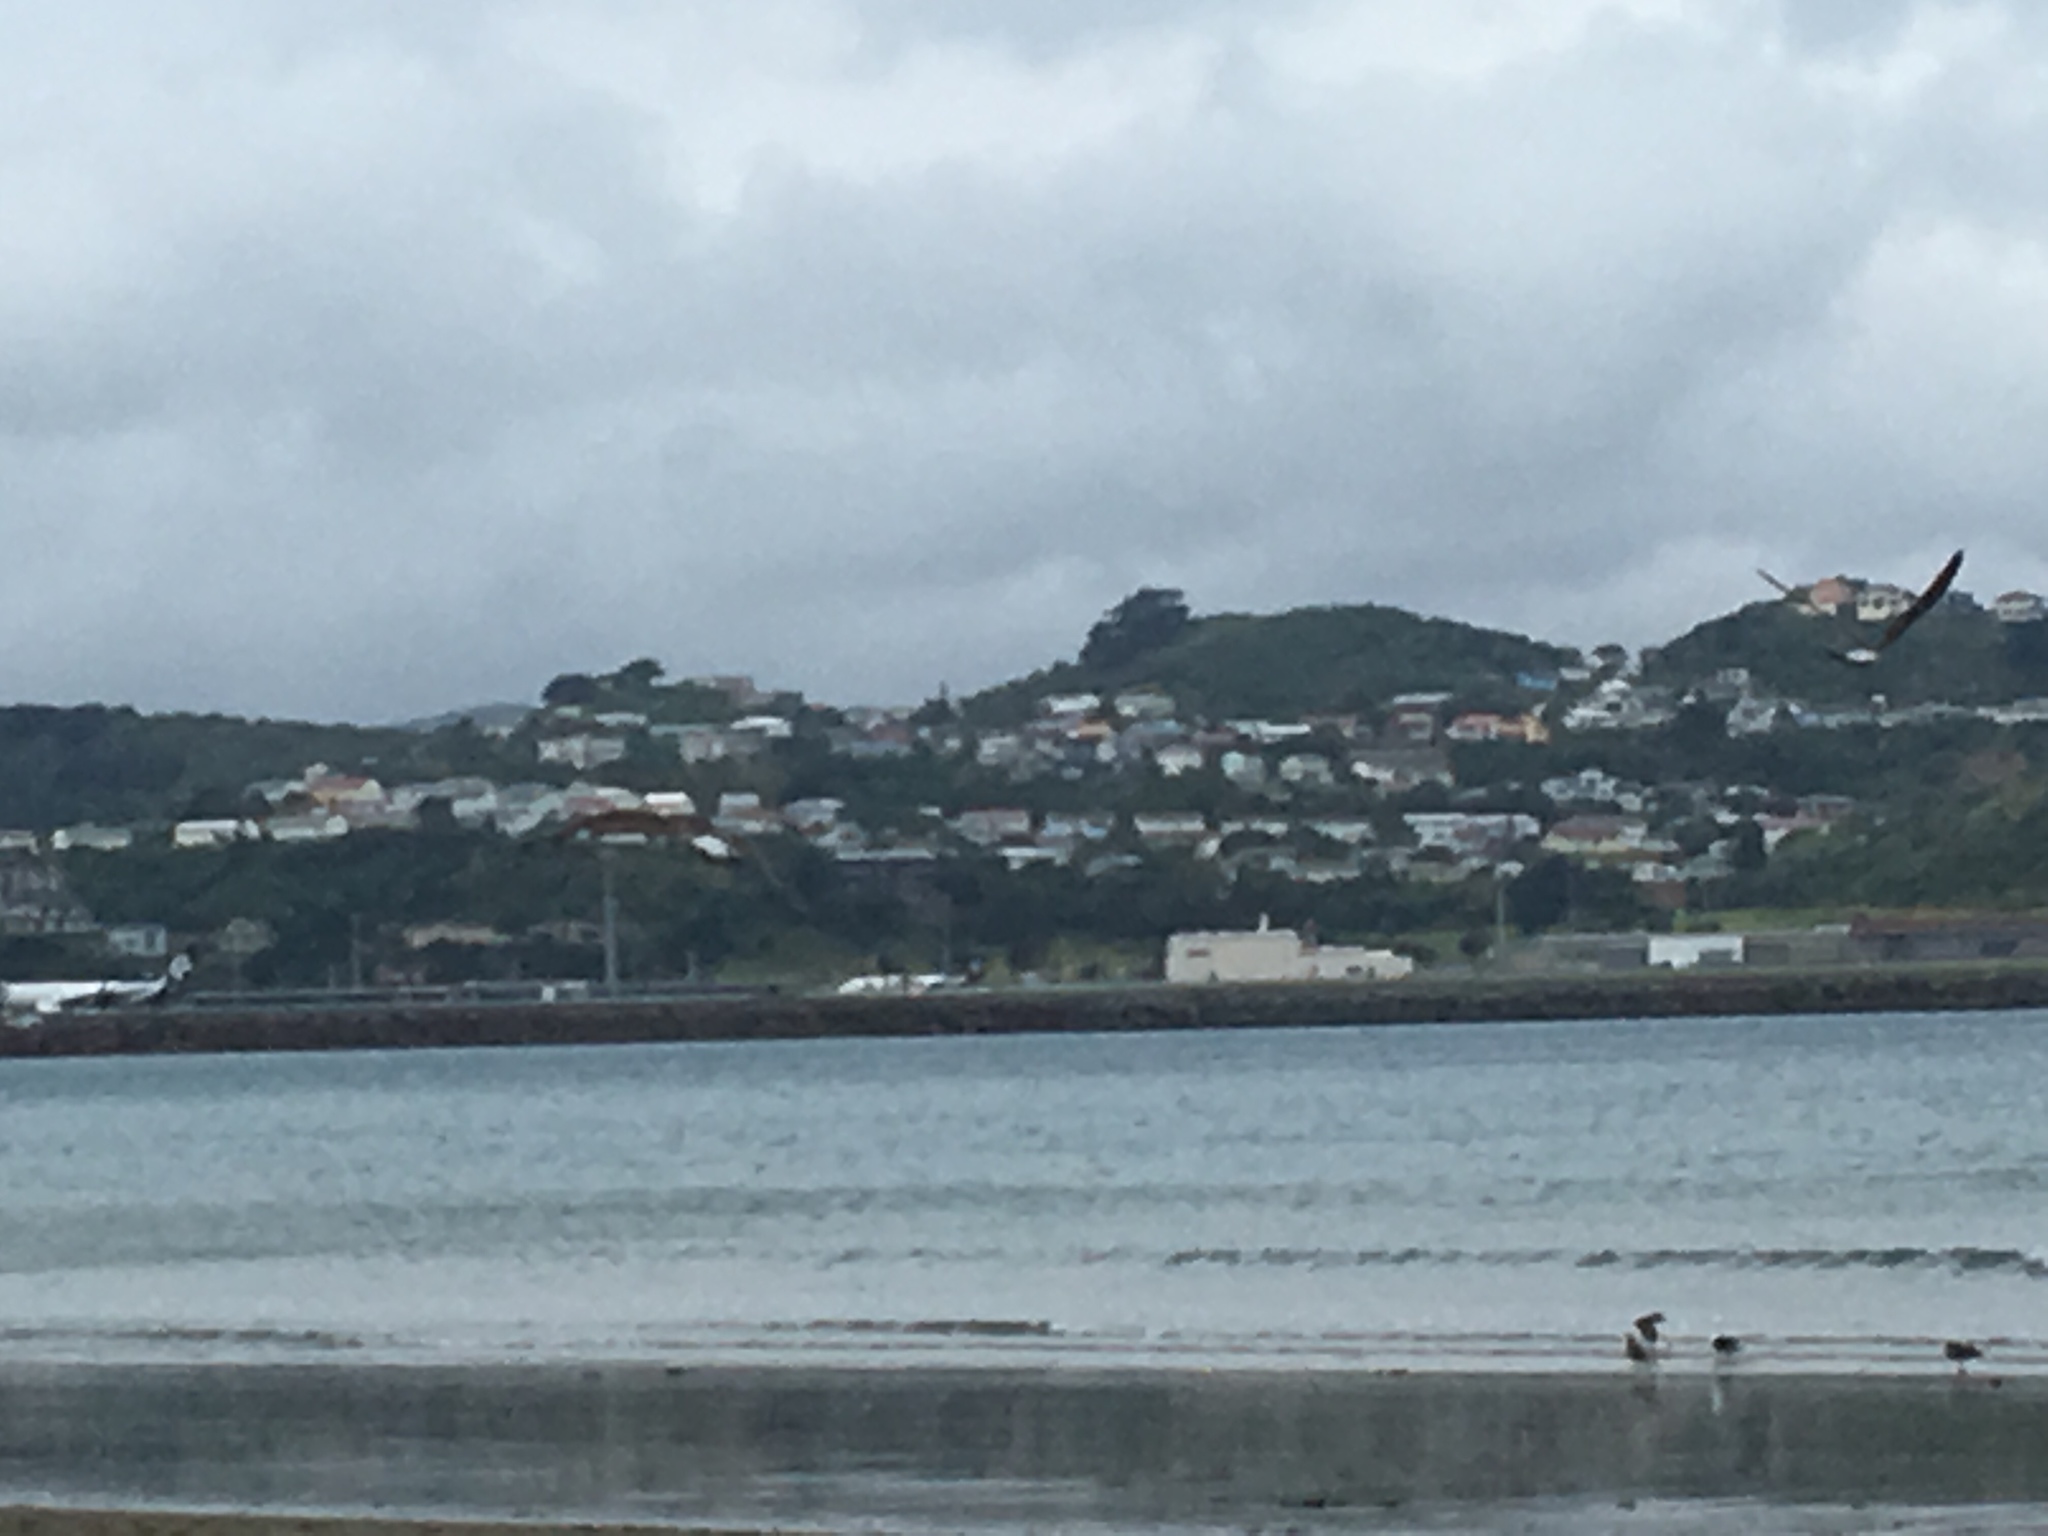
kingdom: Animalia
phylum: Chordata
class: Aves
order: Charadriiformes
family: Laridae
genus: Larus
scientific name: Larus dominicanus
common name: Kelp gull
